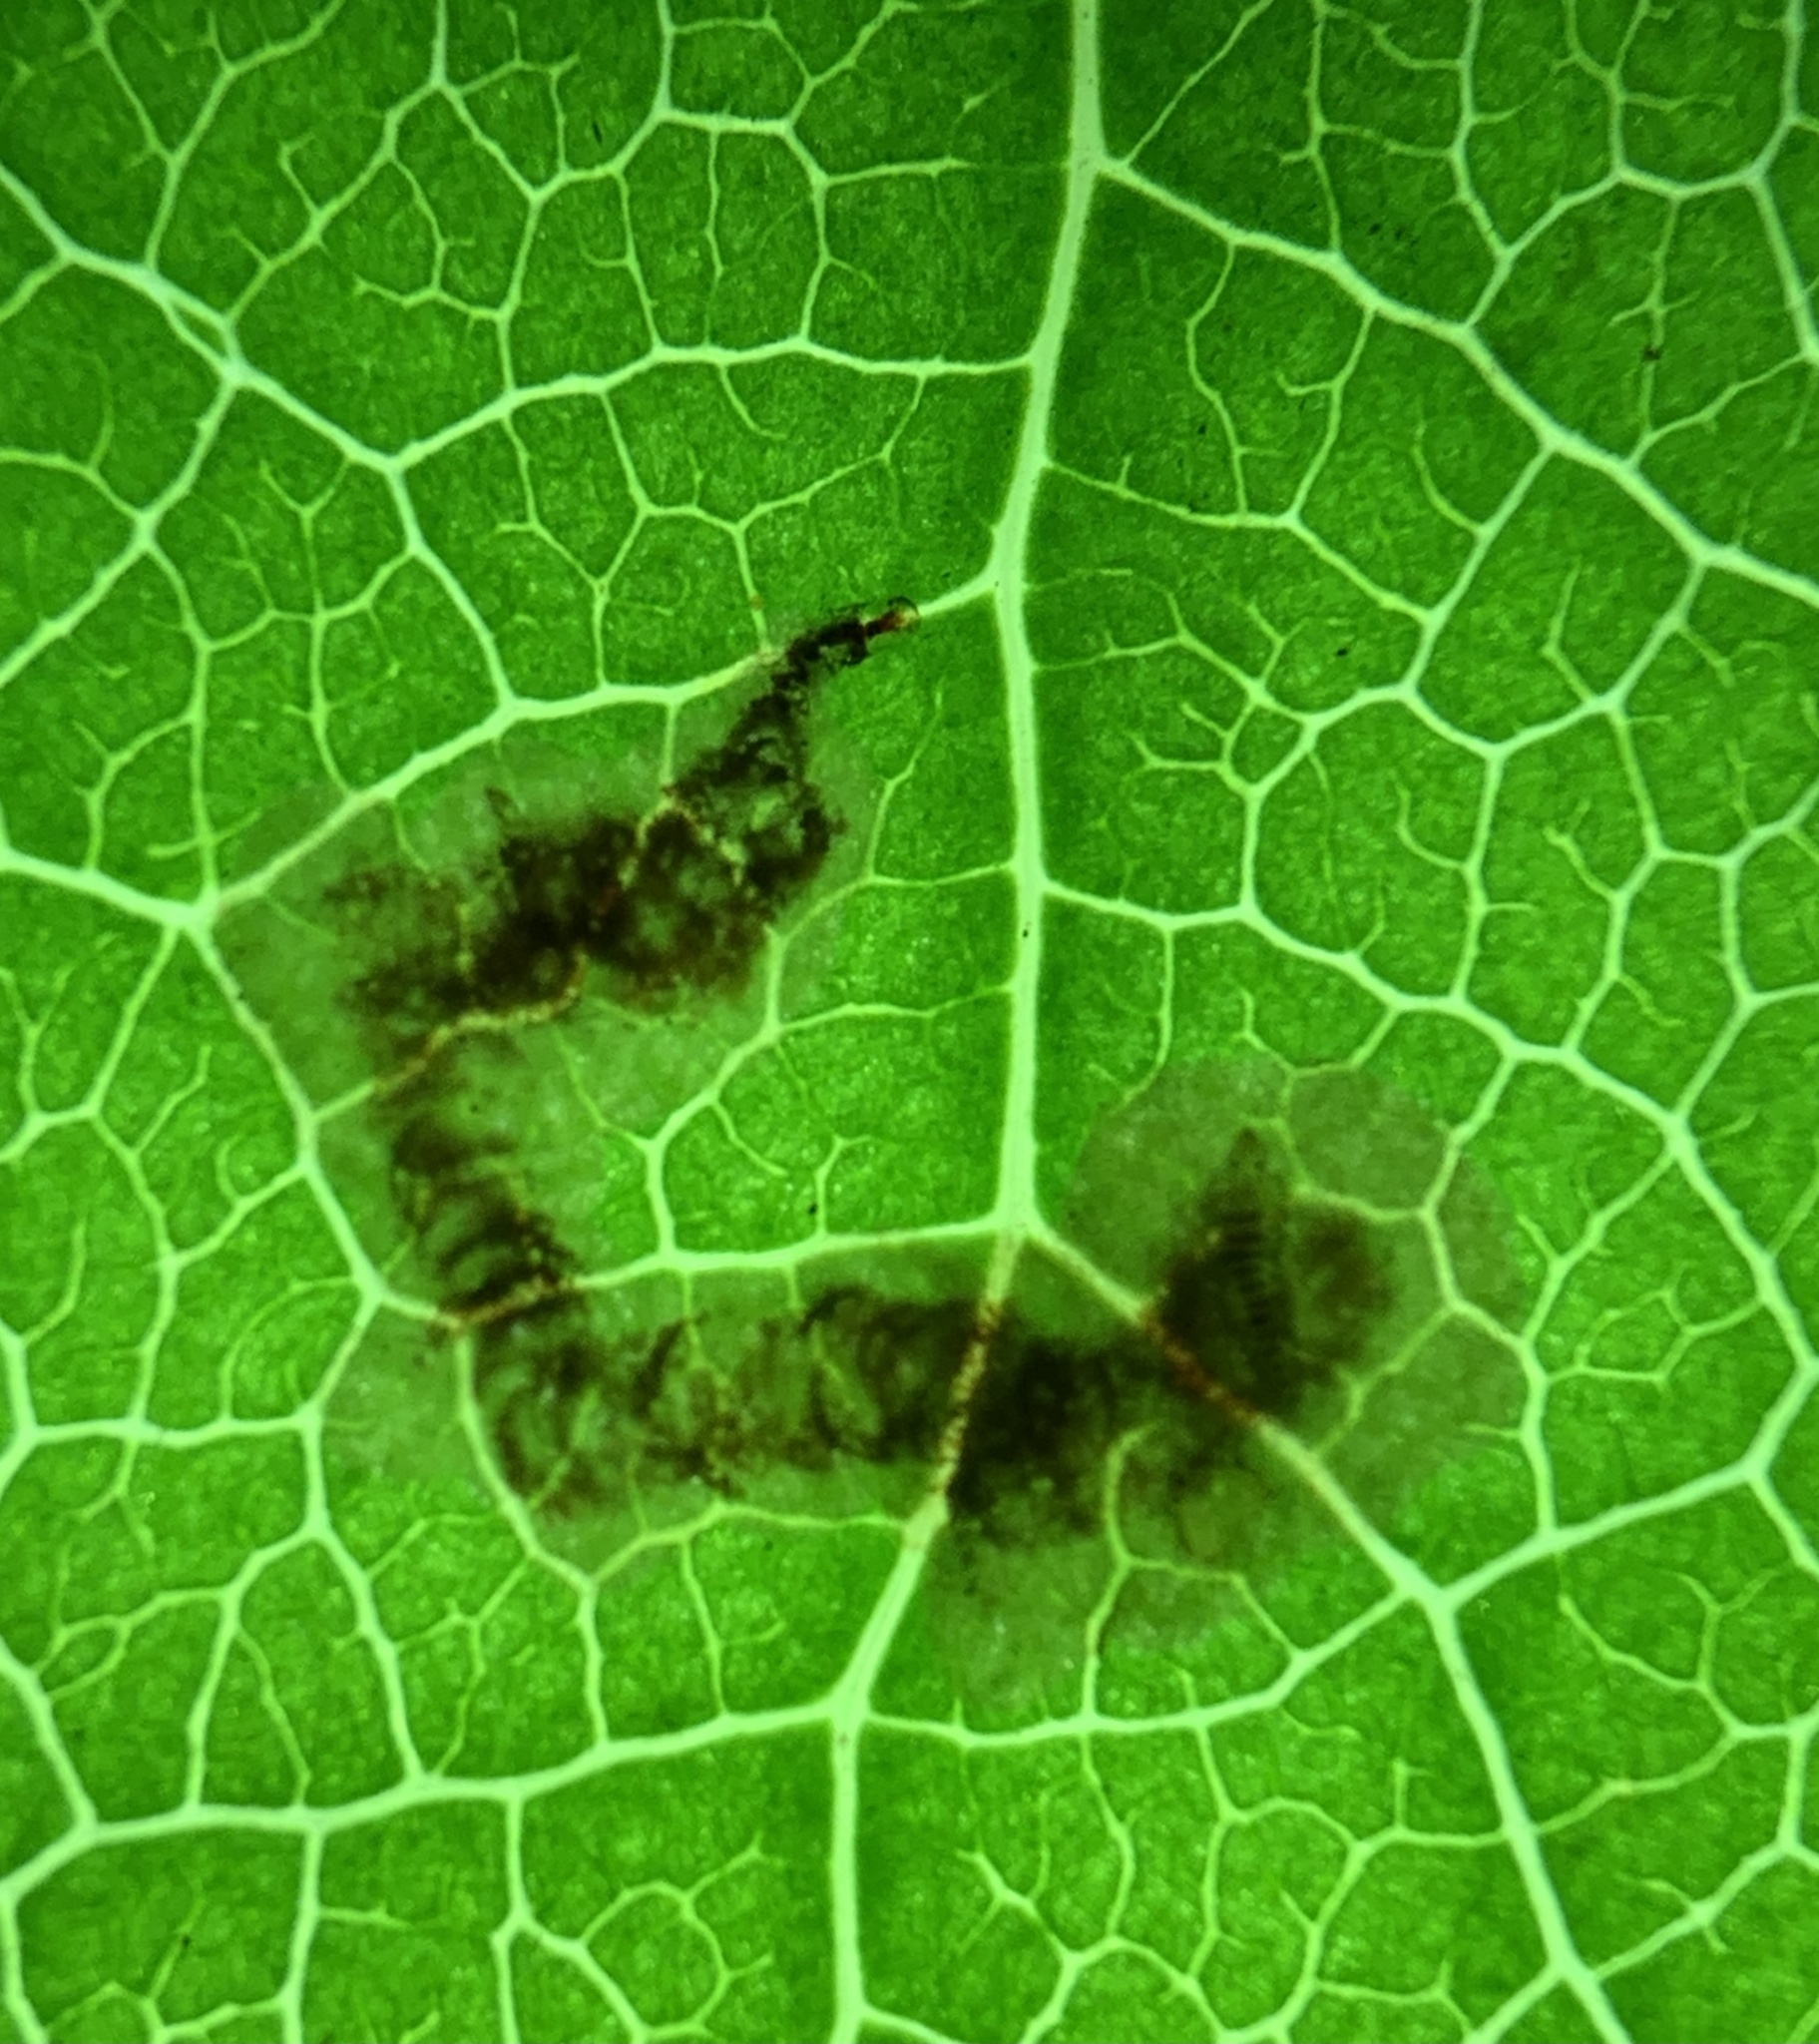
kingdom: Animalia
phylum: Arthropoda
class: Insecta
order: Lepidoptera
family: Gracillariidae
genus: Cameraria
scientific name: Cameraria gaultheriella
